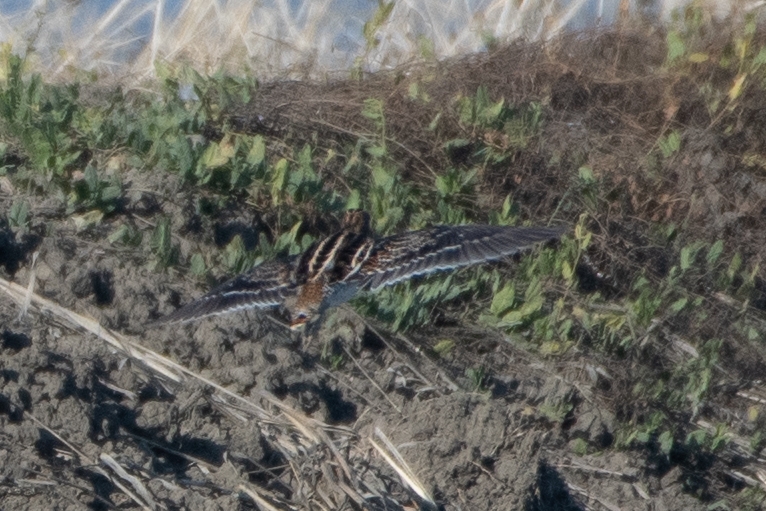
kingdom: Animalia
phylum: Chordata
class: Aves
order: Charadriiformes
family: Scolopacidae
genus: Gallinago
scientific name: Gallinago delicata
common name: Wilson's snipe
